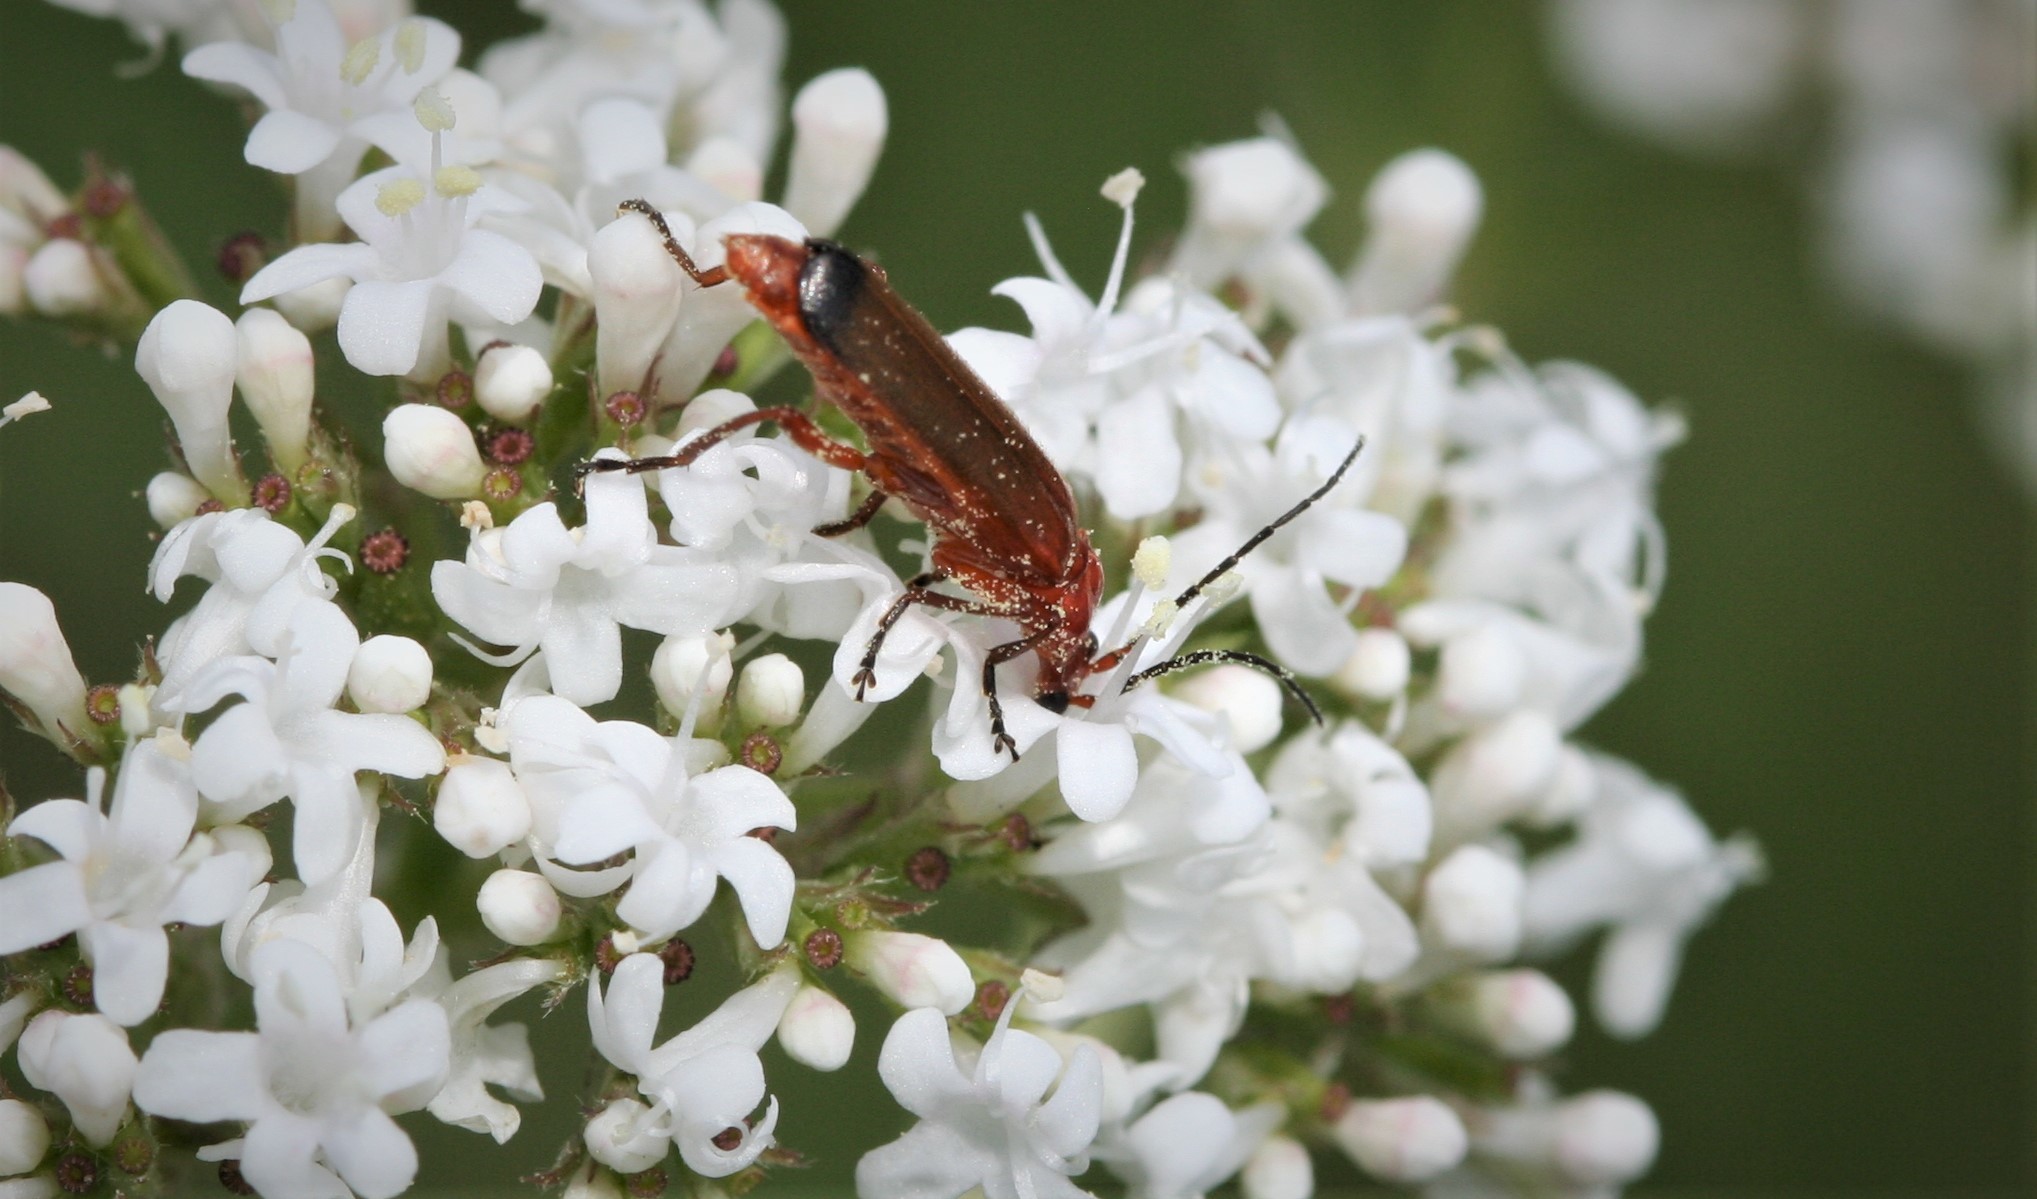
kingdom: Animalia
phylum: Arthropoda
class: Insecta
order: Coleoptera
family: Cantharidae
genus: Rhagonycha
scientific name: Rhagonycha fulva
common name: Common red soldier beetle
